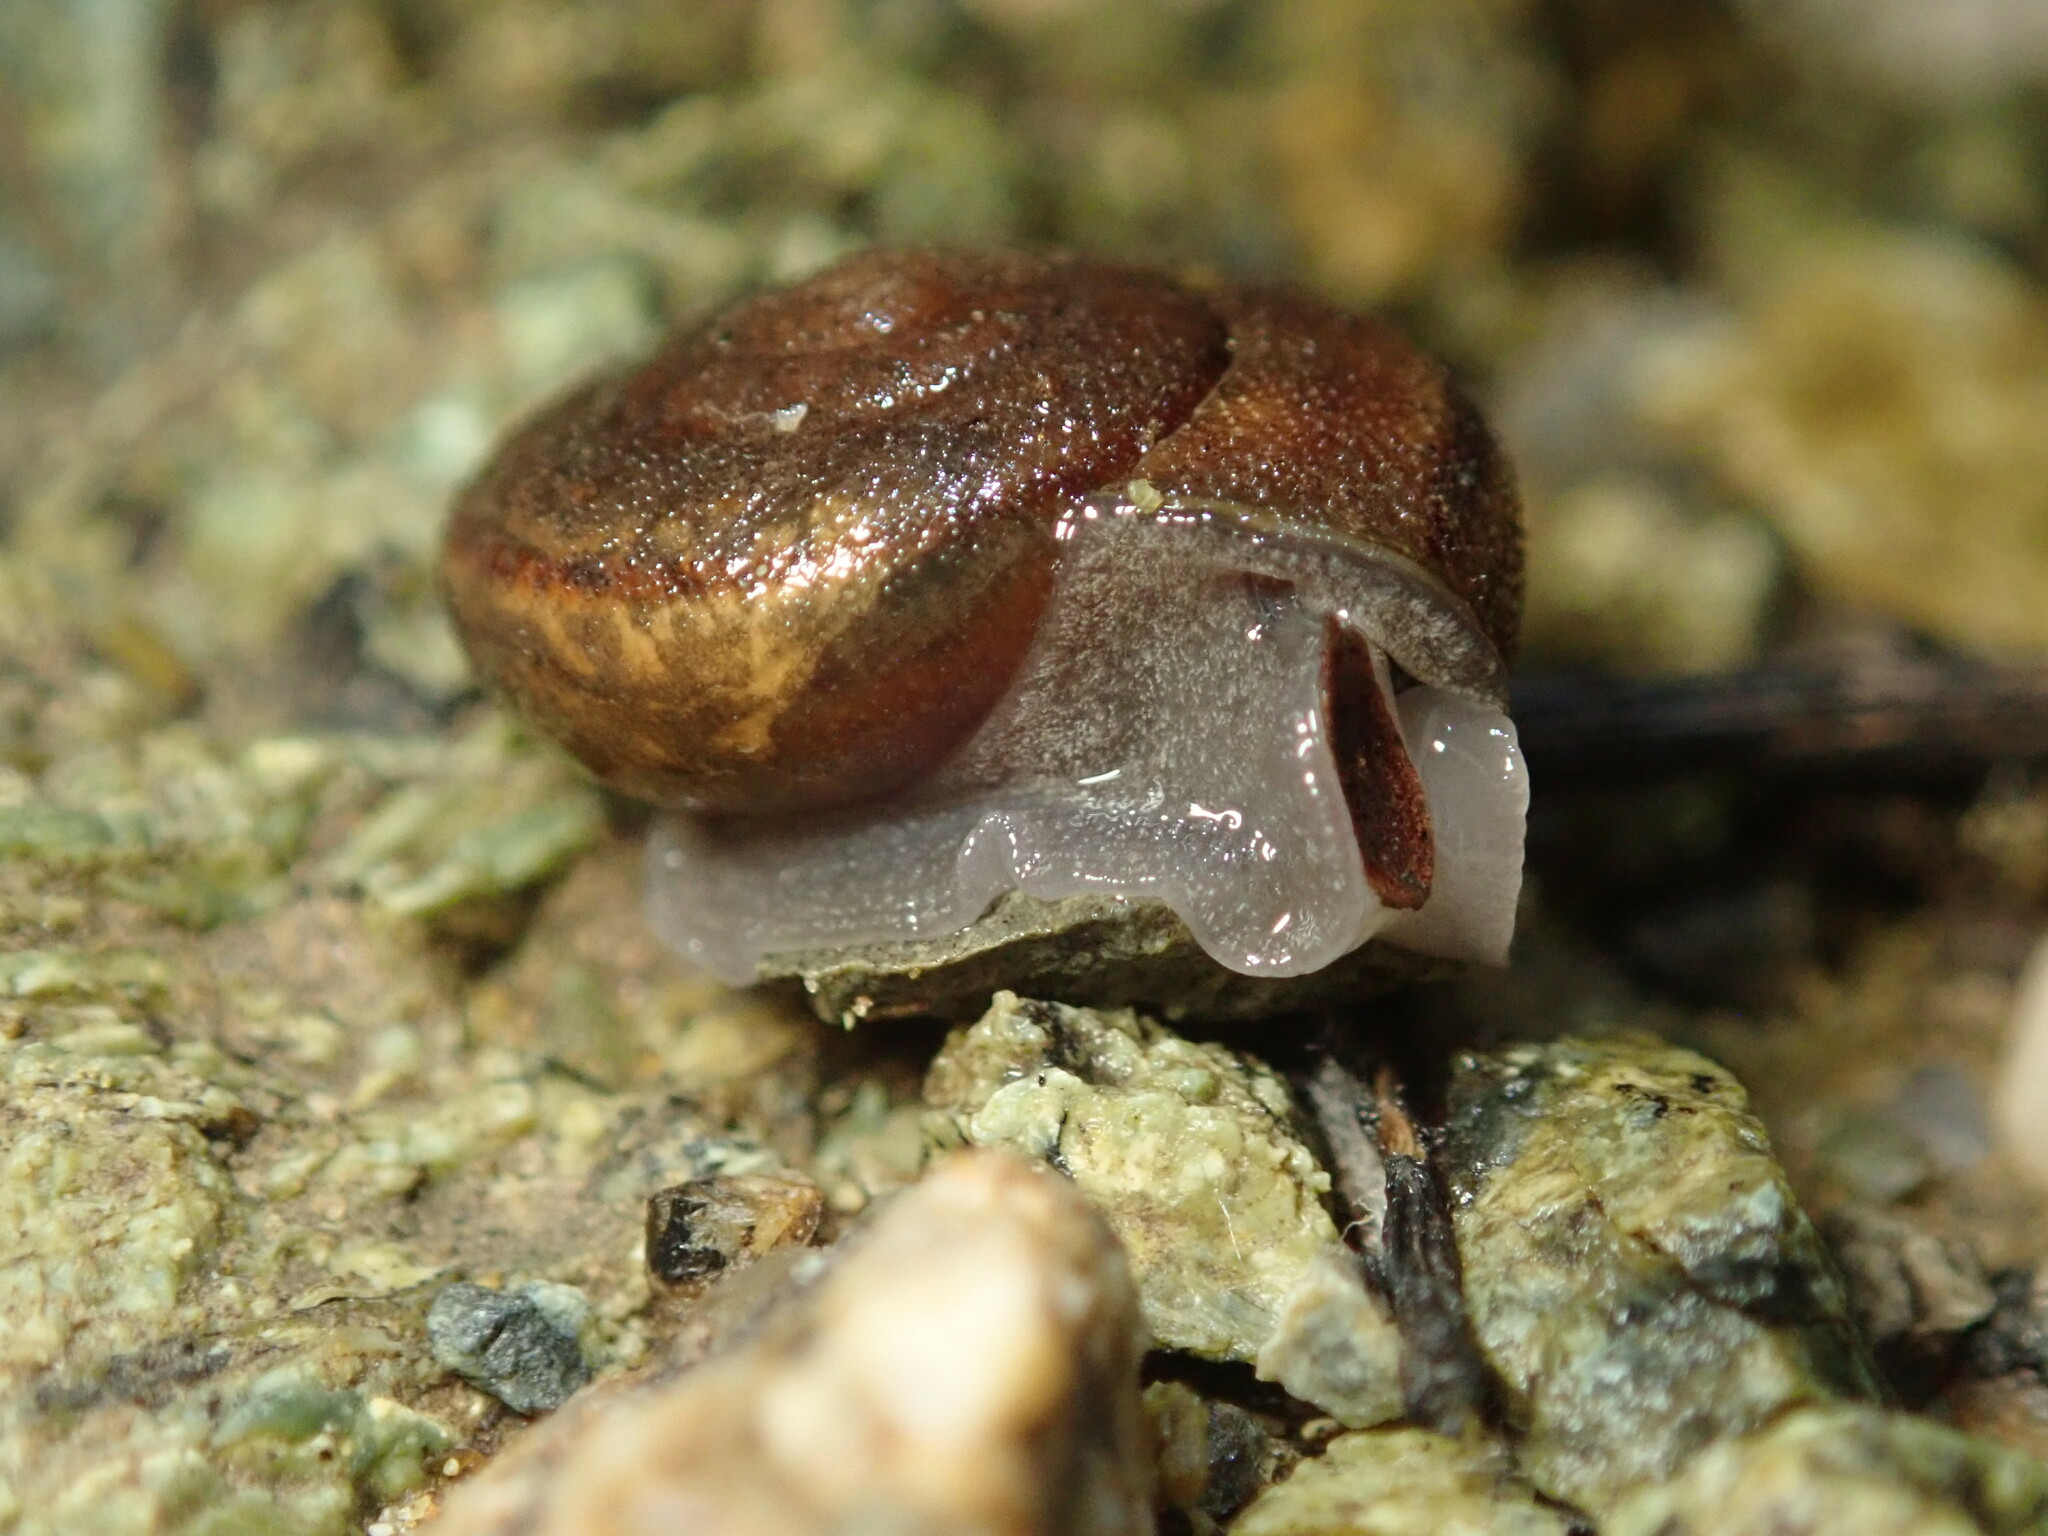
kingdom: Animalia
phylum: Mollusca
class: Gastropoda
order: Stylommatophora
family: Xanthonychidae
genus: Helminthoglypta
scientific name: Helminthoglypta morroensis
